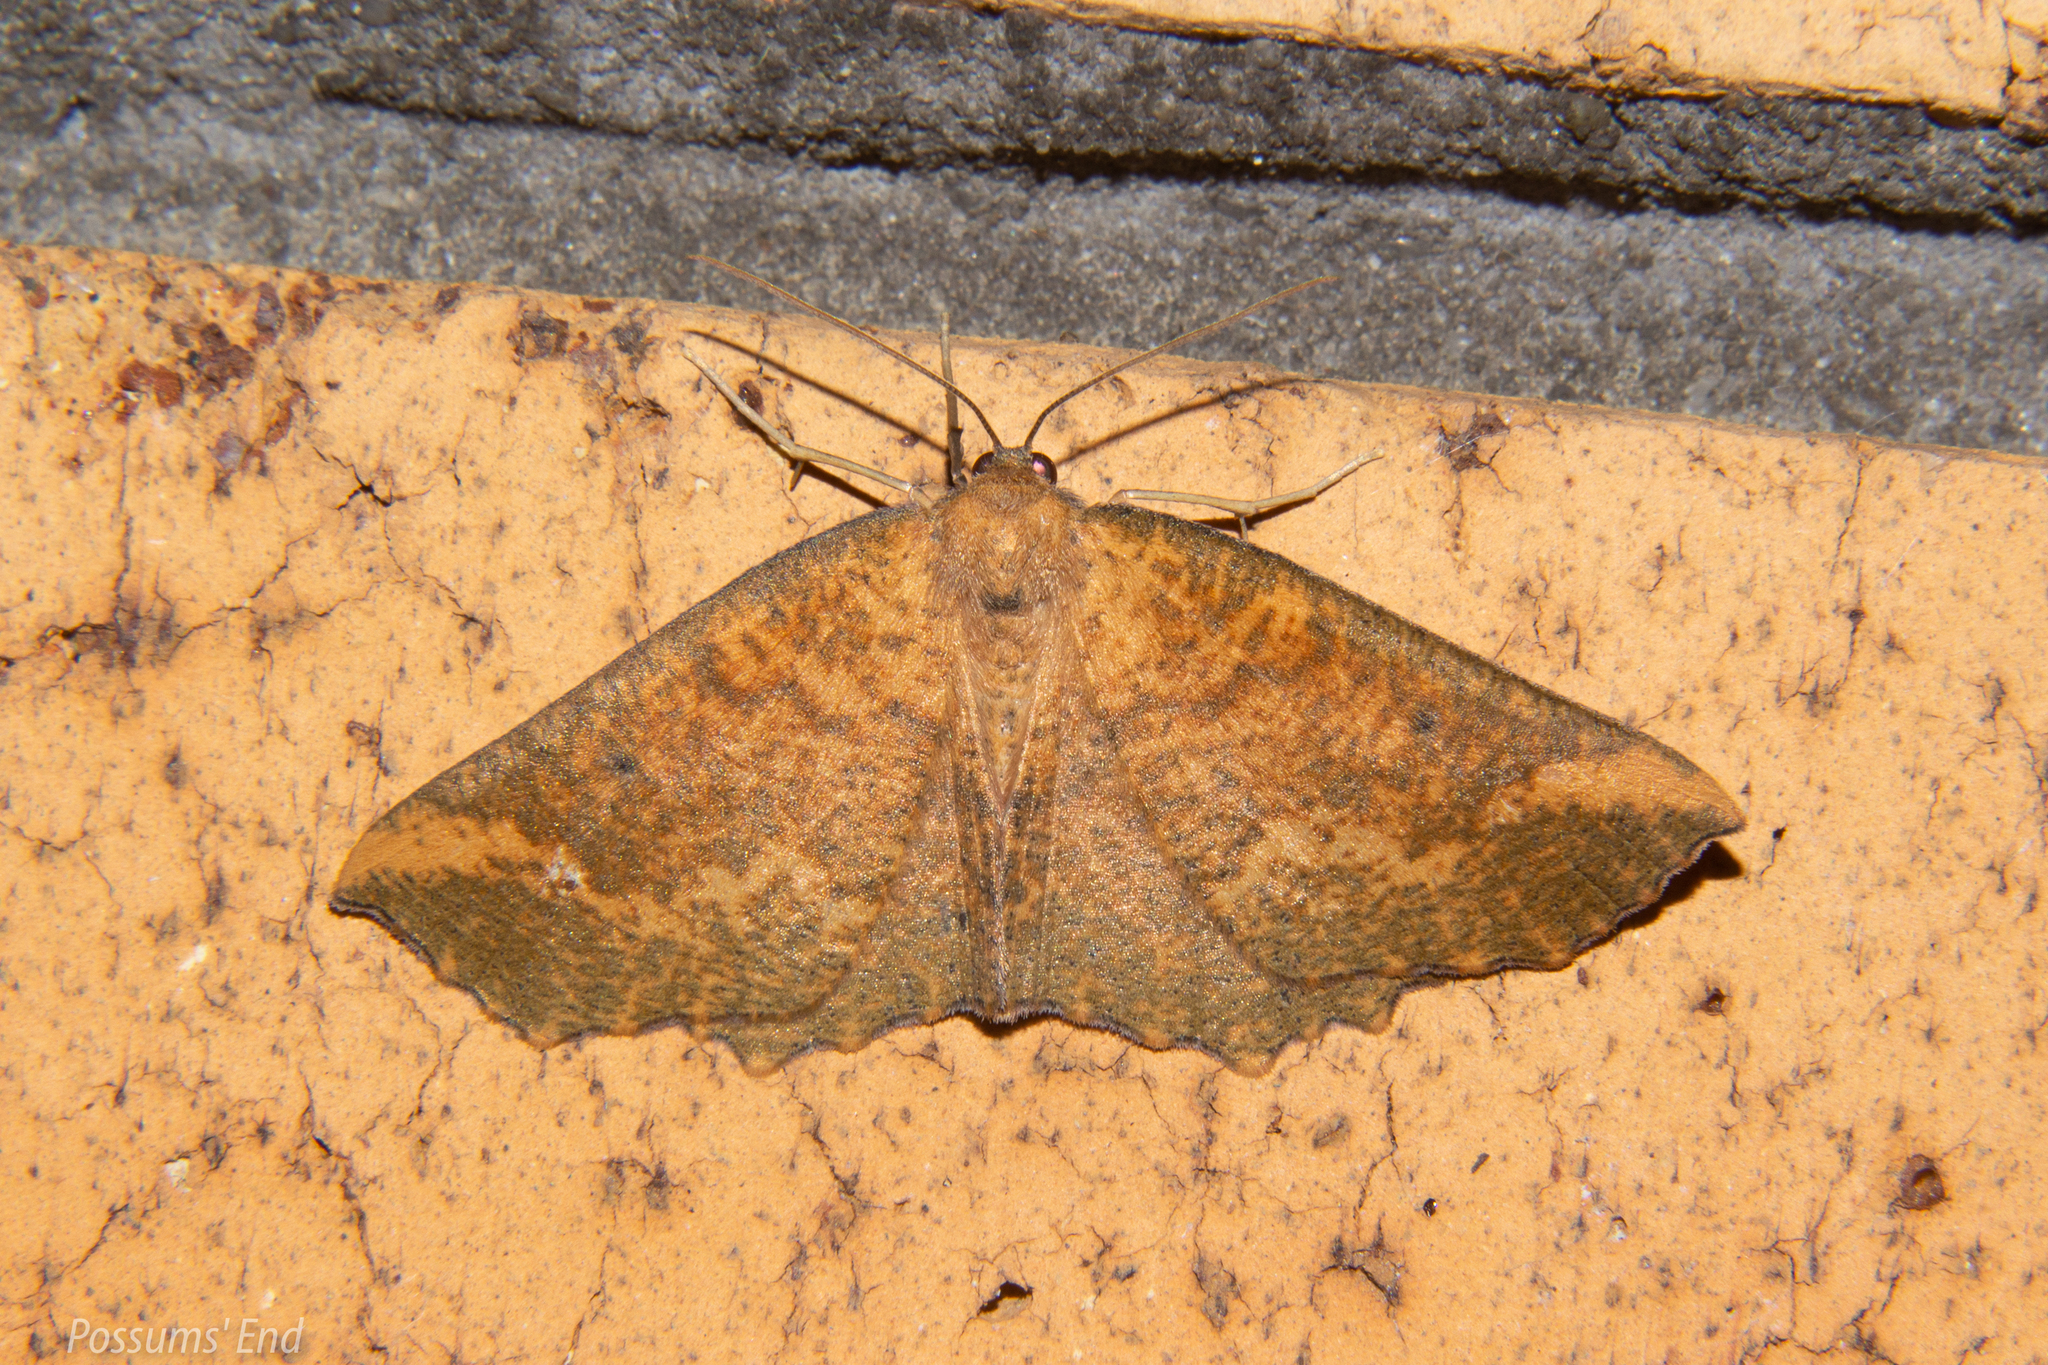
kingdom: Animalia
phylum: Arthropoda
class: Insecta
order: Lepidoptera
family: Geometridae
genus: Xyridacma
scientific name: Xyridacma ustaria
